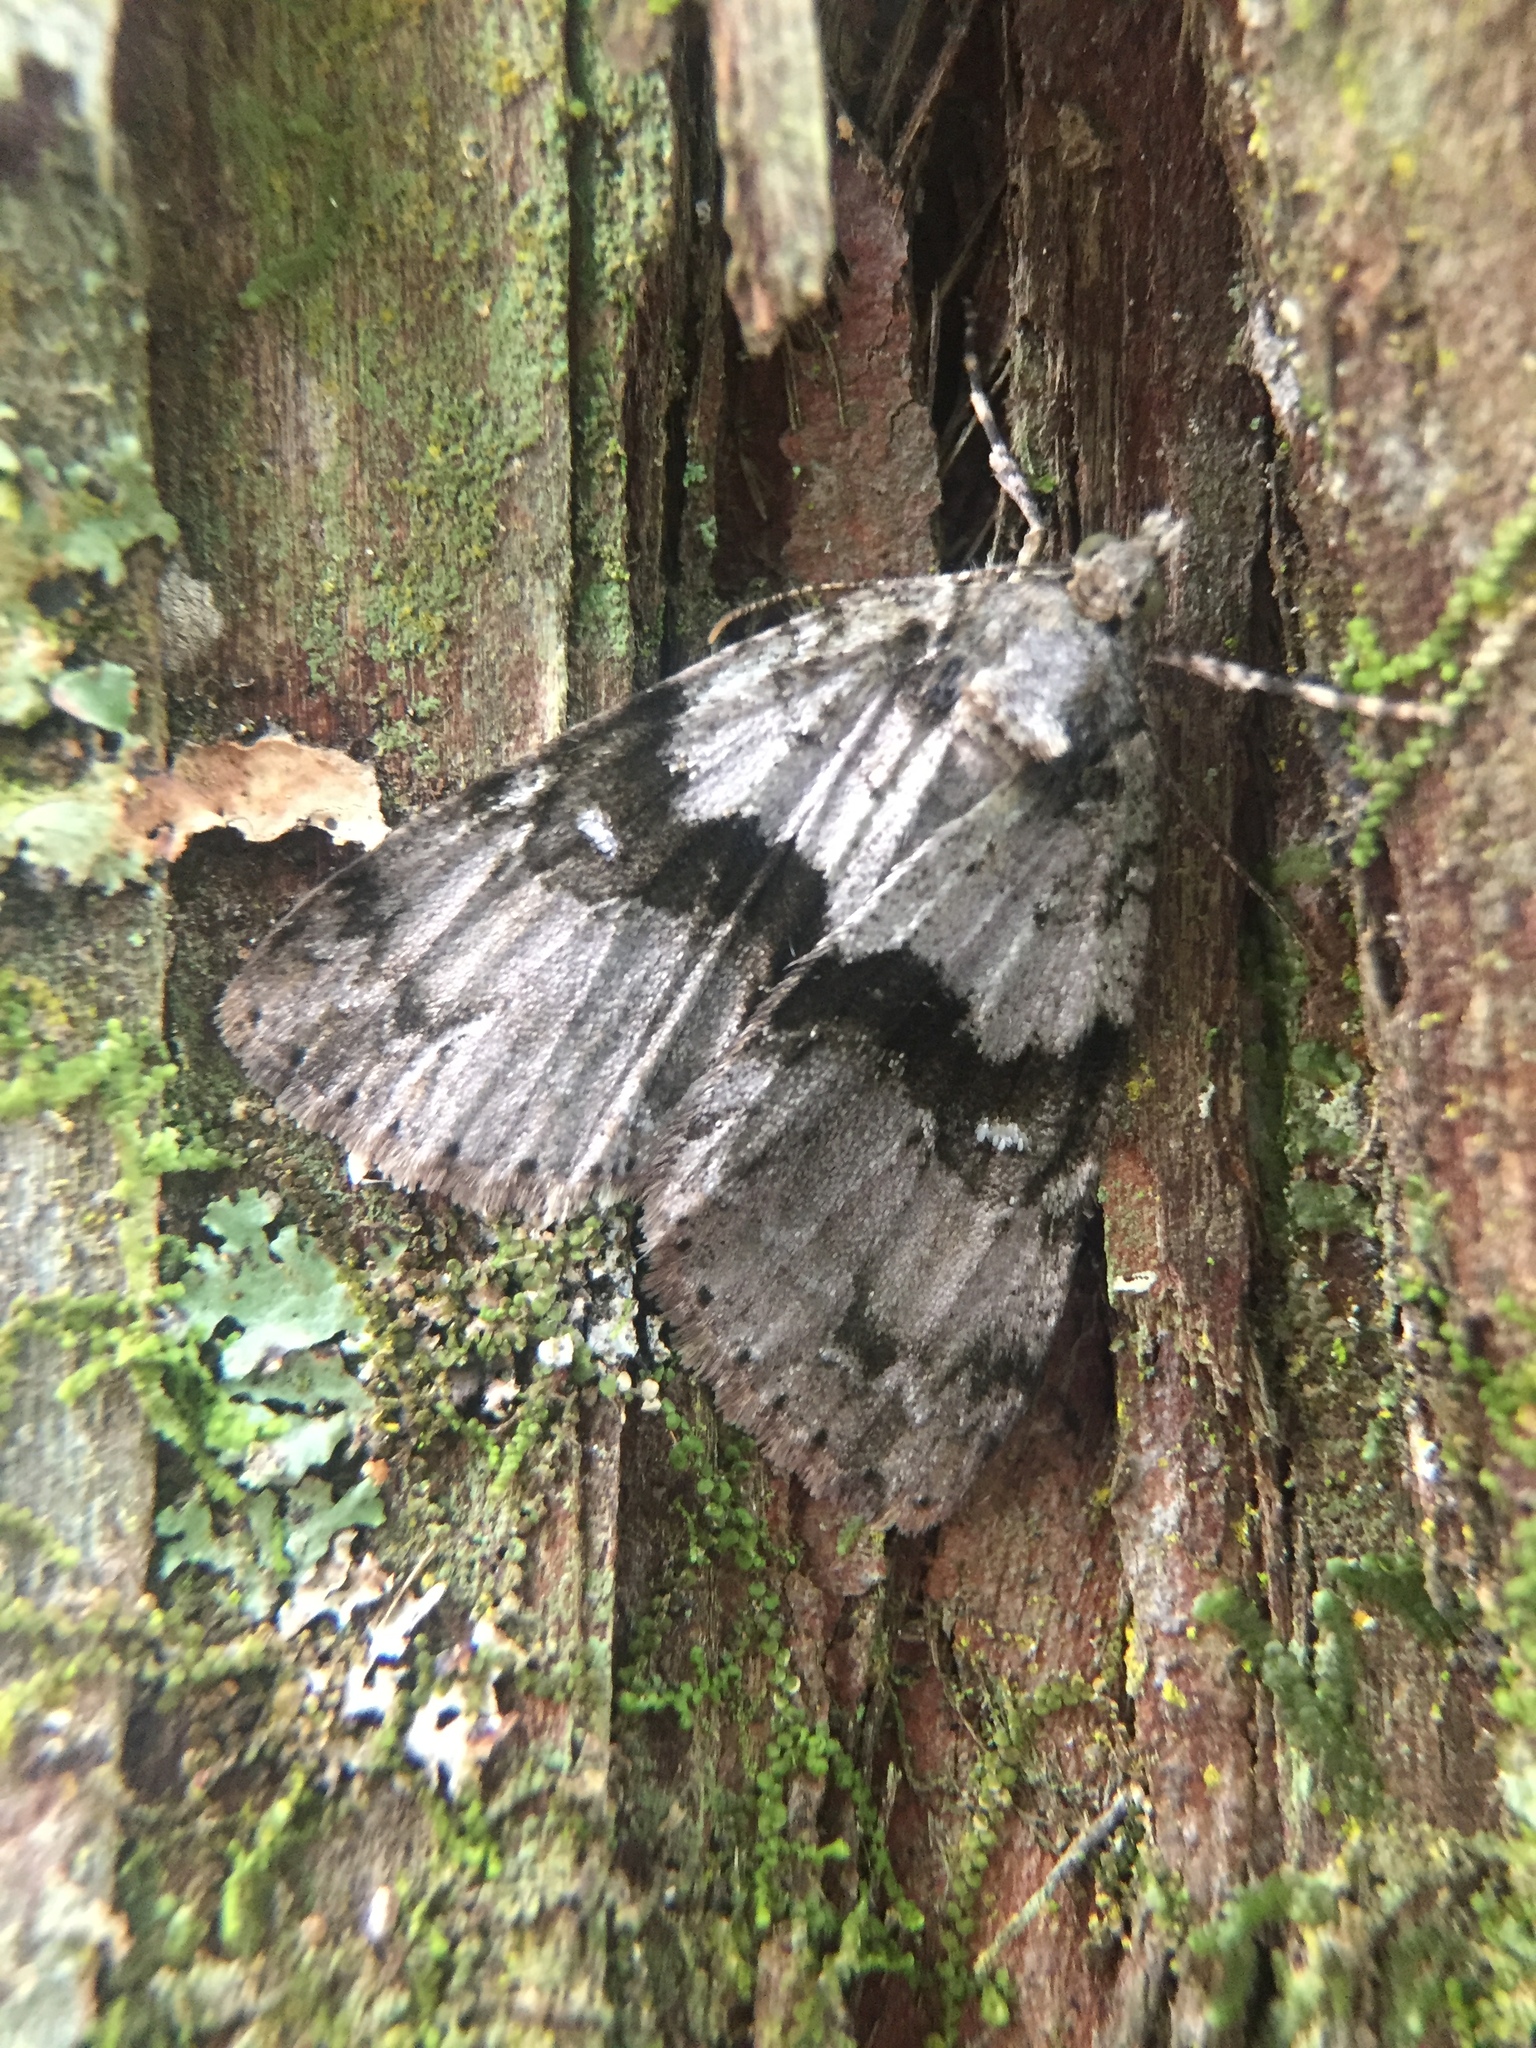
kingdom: Animalia
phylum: Arthropoda
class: Insecta
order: Lepidoptera
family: Geometridae
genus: Pseudocoremia
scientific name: Pseudocoremia suavis
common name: Common forest looper
